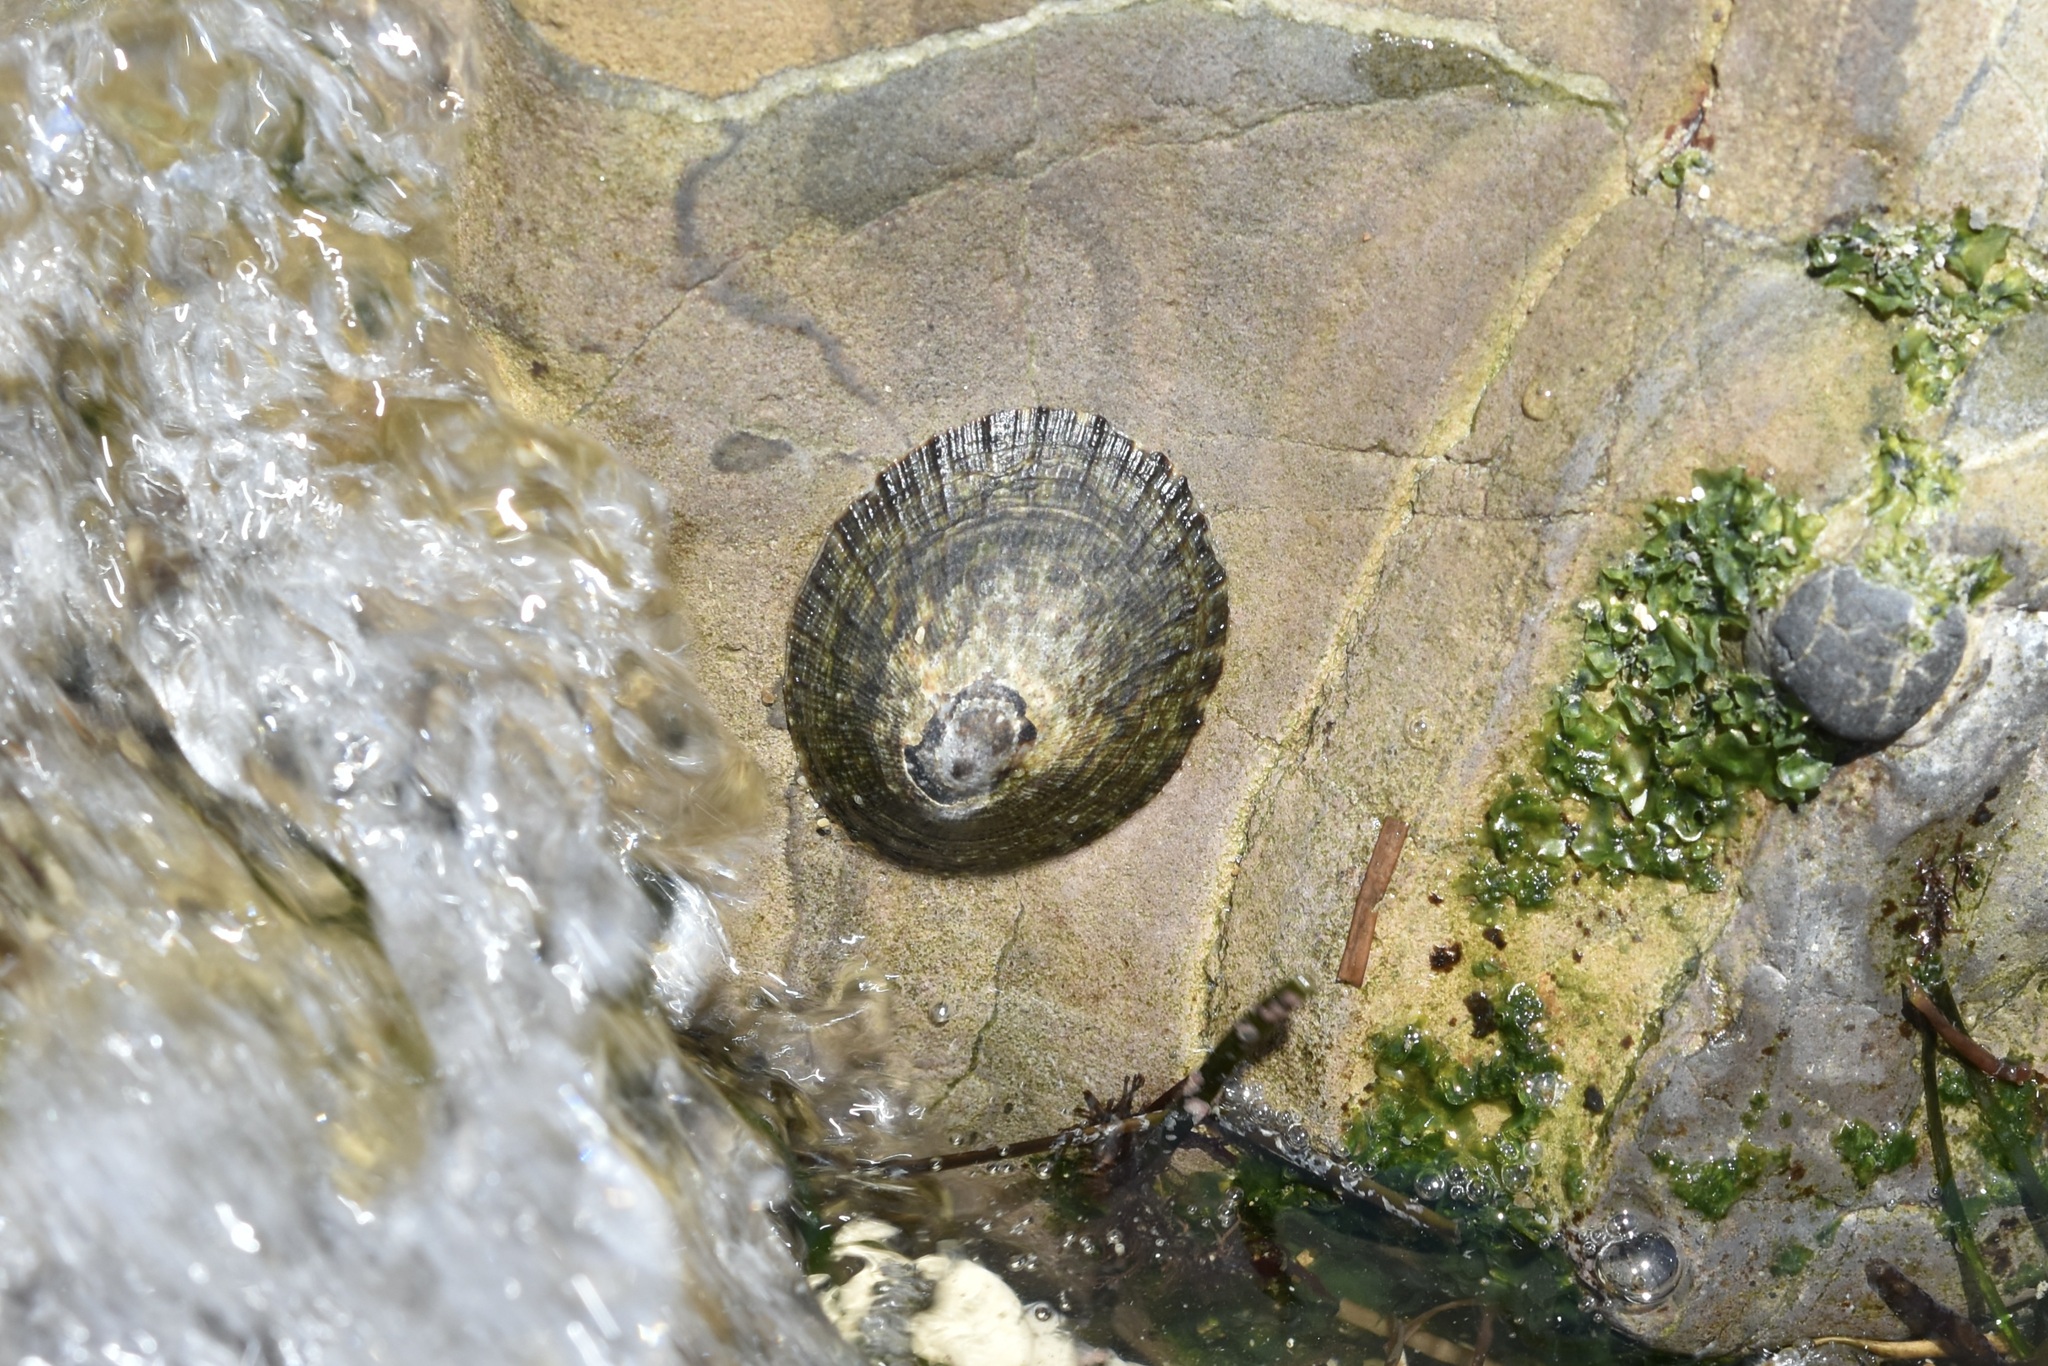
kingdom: Animalia
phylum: Mollusca
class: Gastropoda
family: Lottiidae
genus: Lottia
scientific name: Lottia limatula
